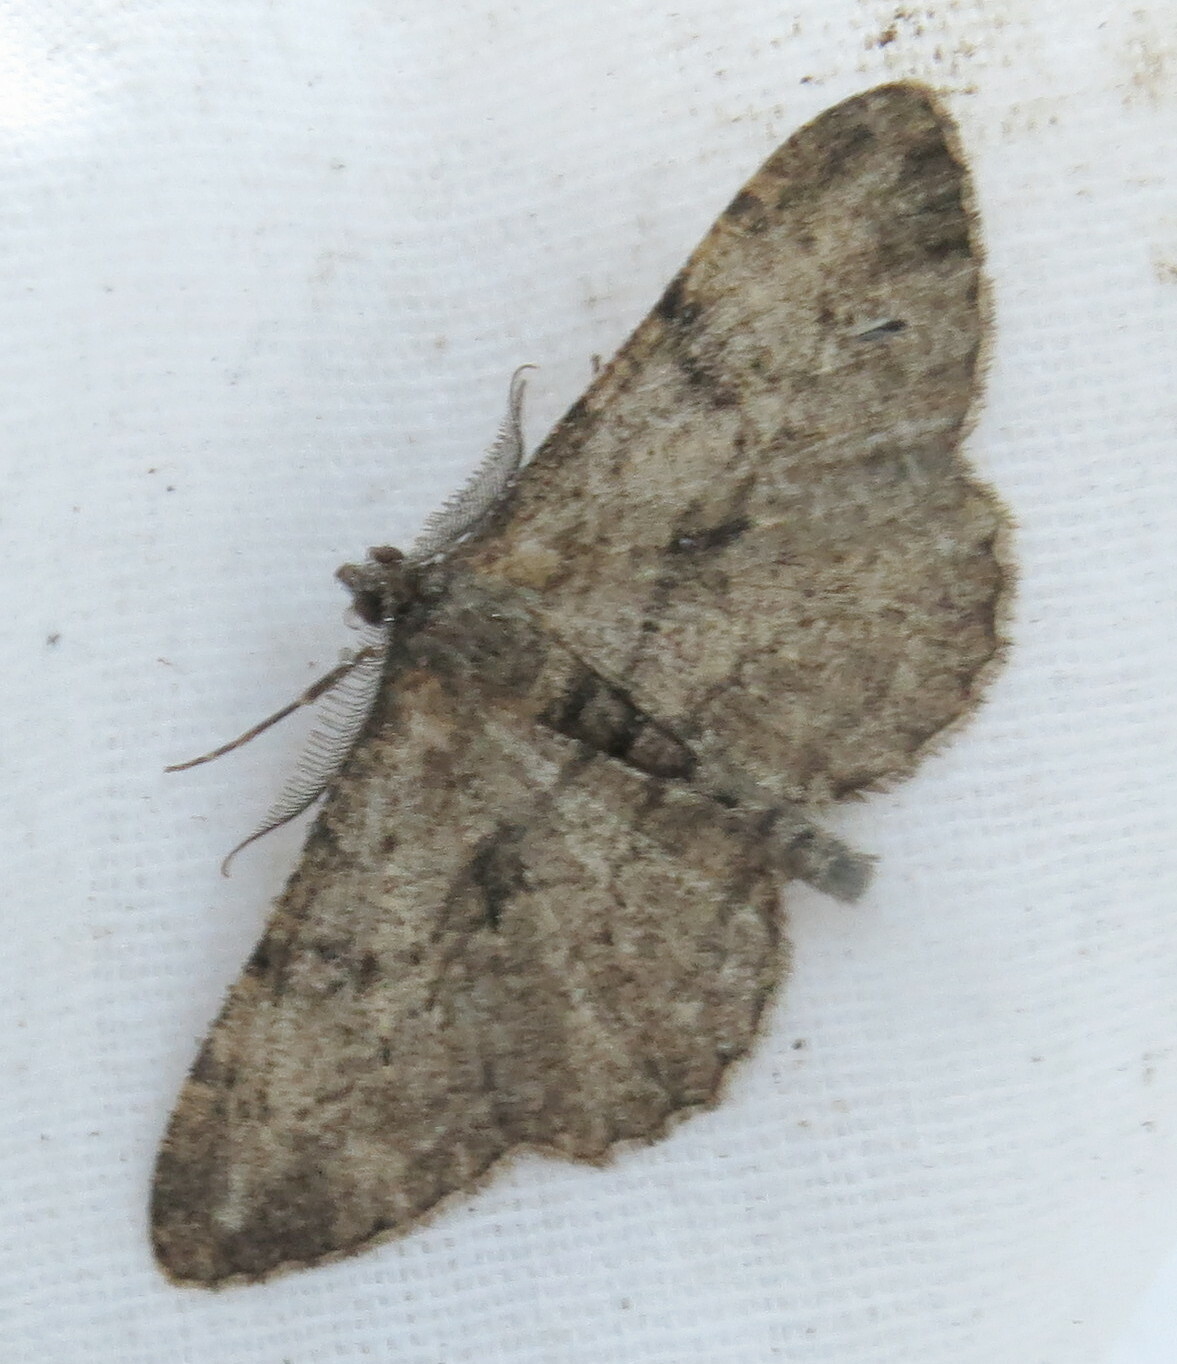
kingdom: Animalia
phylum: Arthropoda
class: Insecta
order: Lepidoptera
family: Geometridae
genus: Peribatodes
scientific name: Peribatodes rhomboidaria
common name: Willow beauty
